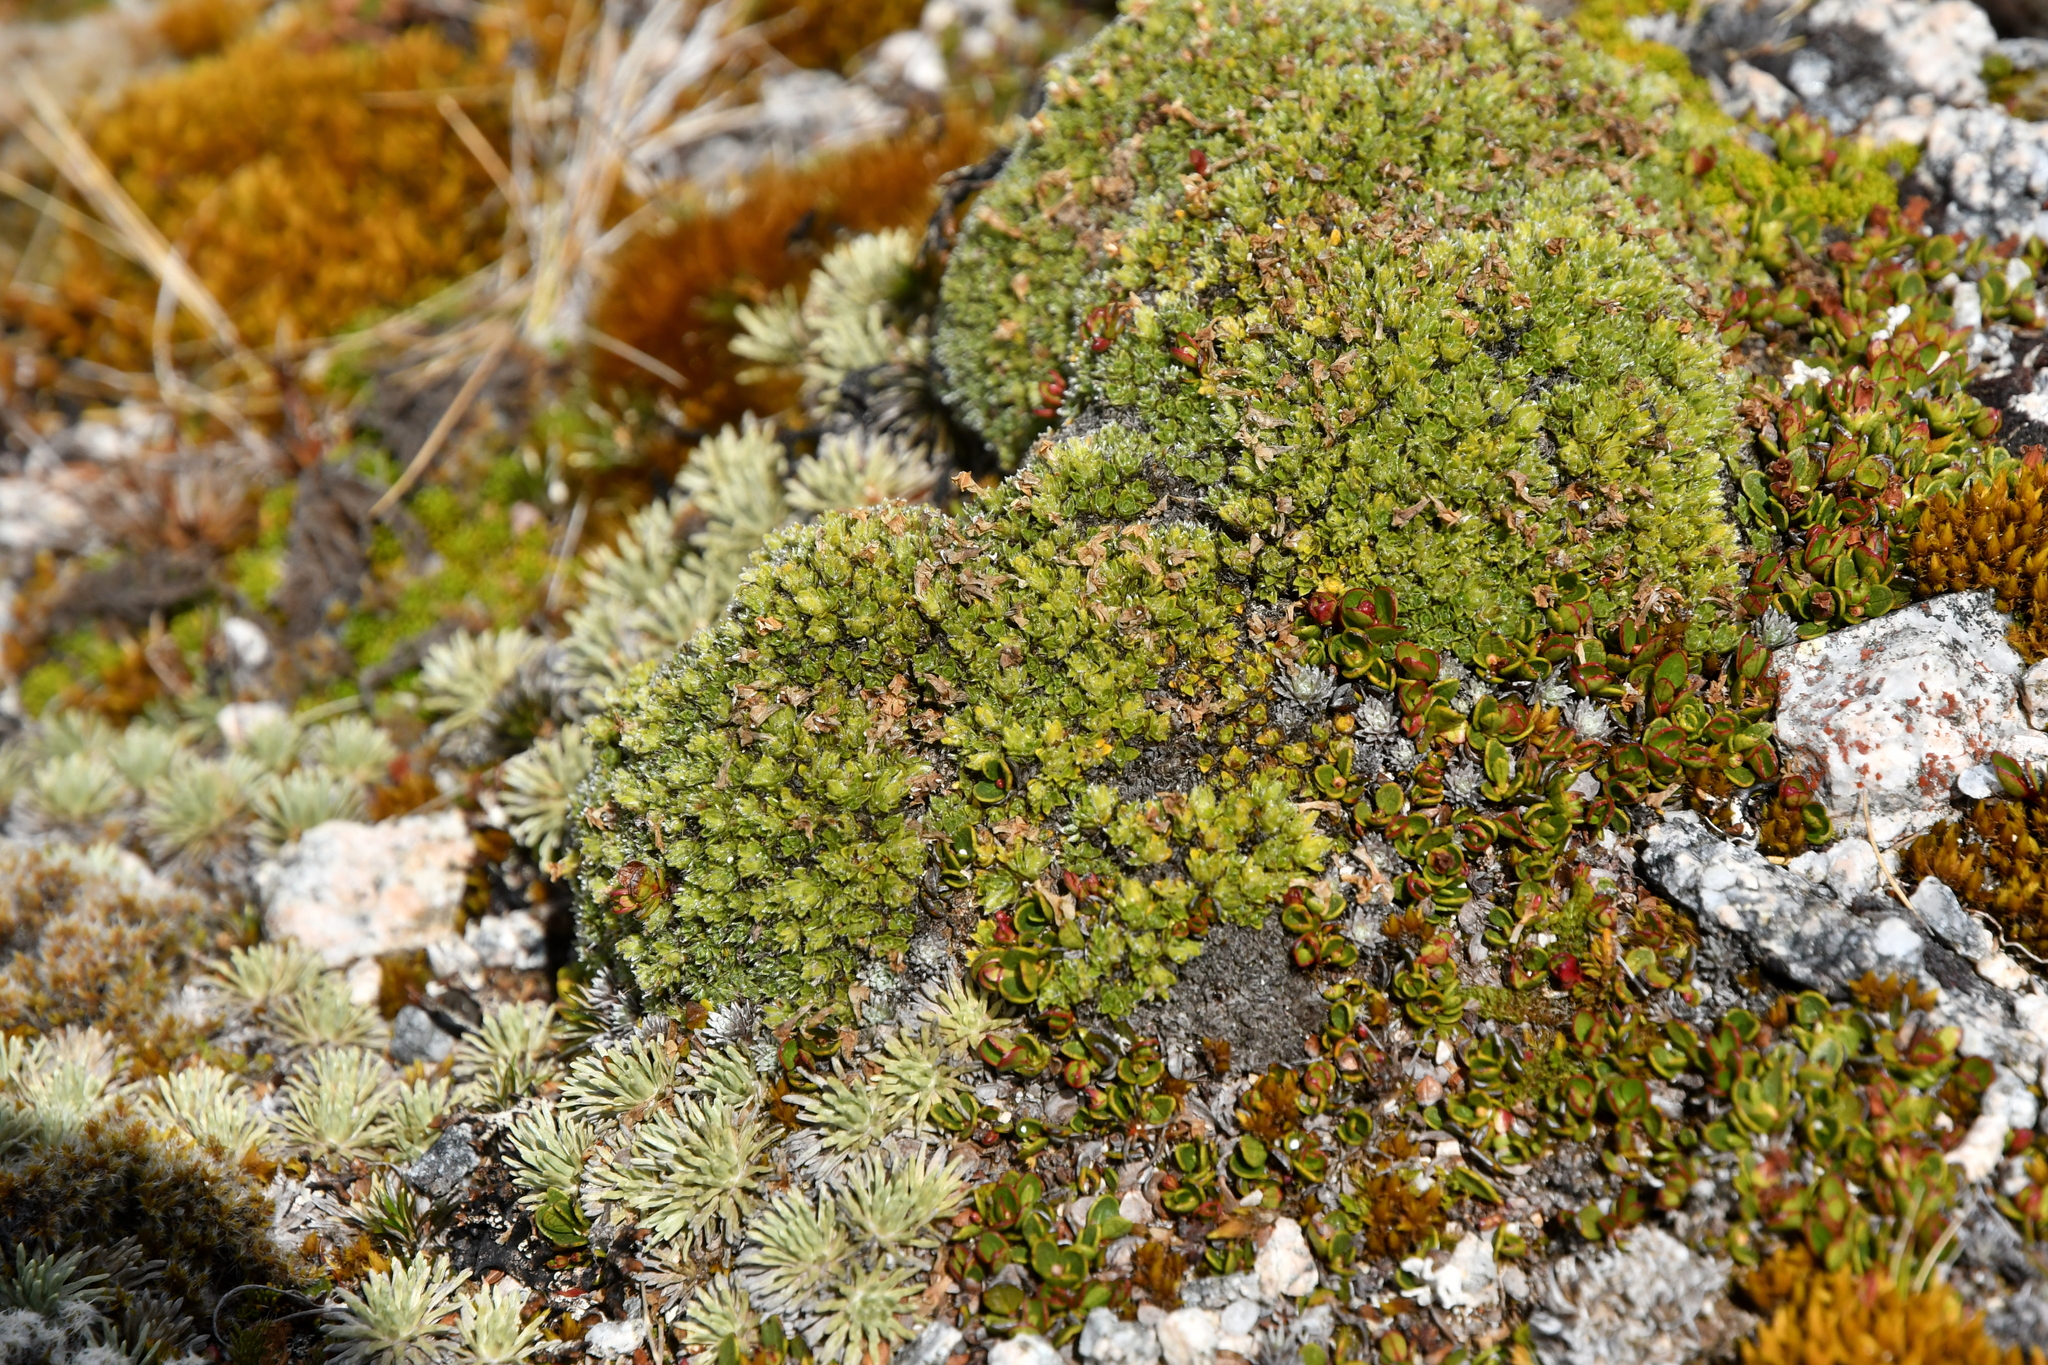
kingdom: Plantae
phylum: Tracheophyta
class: Magnoliopsida
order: Lamiales
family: Plantaginaceae
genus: Veronica
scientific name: Veronica ciliolata
